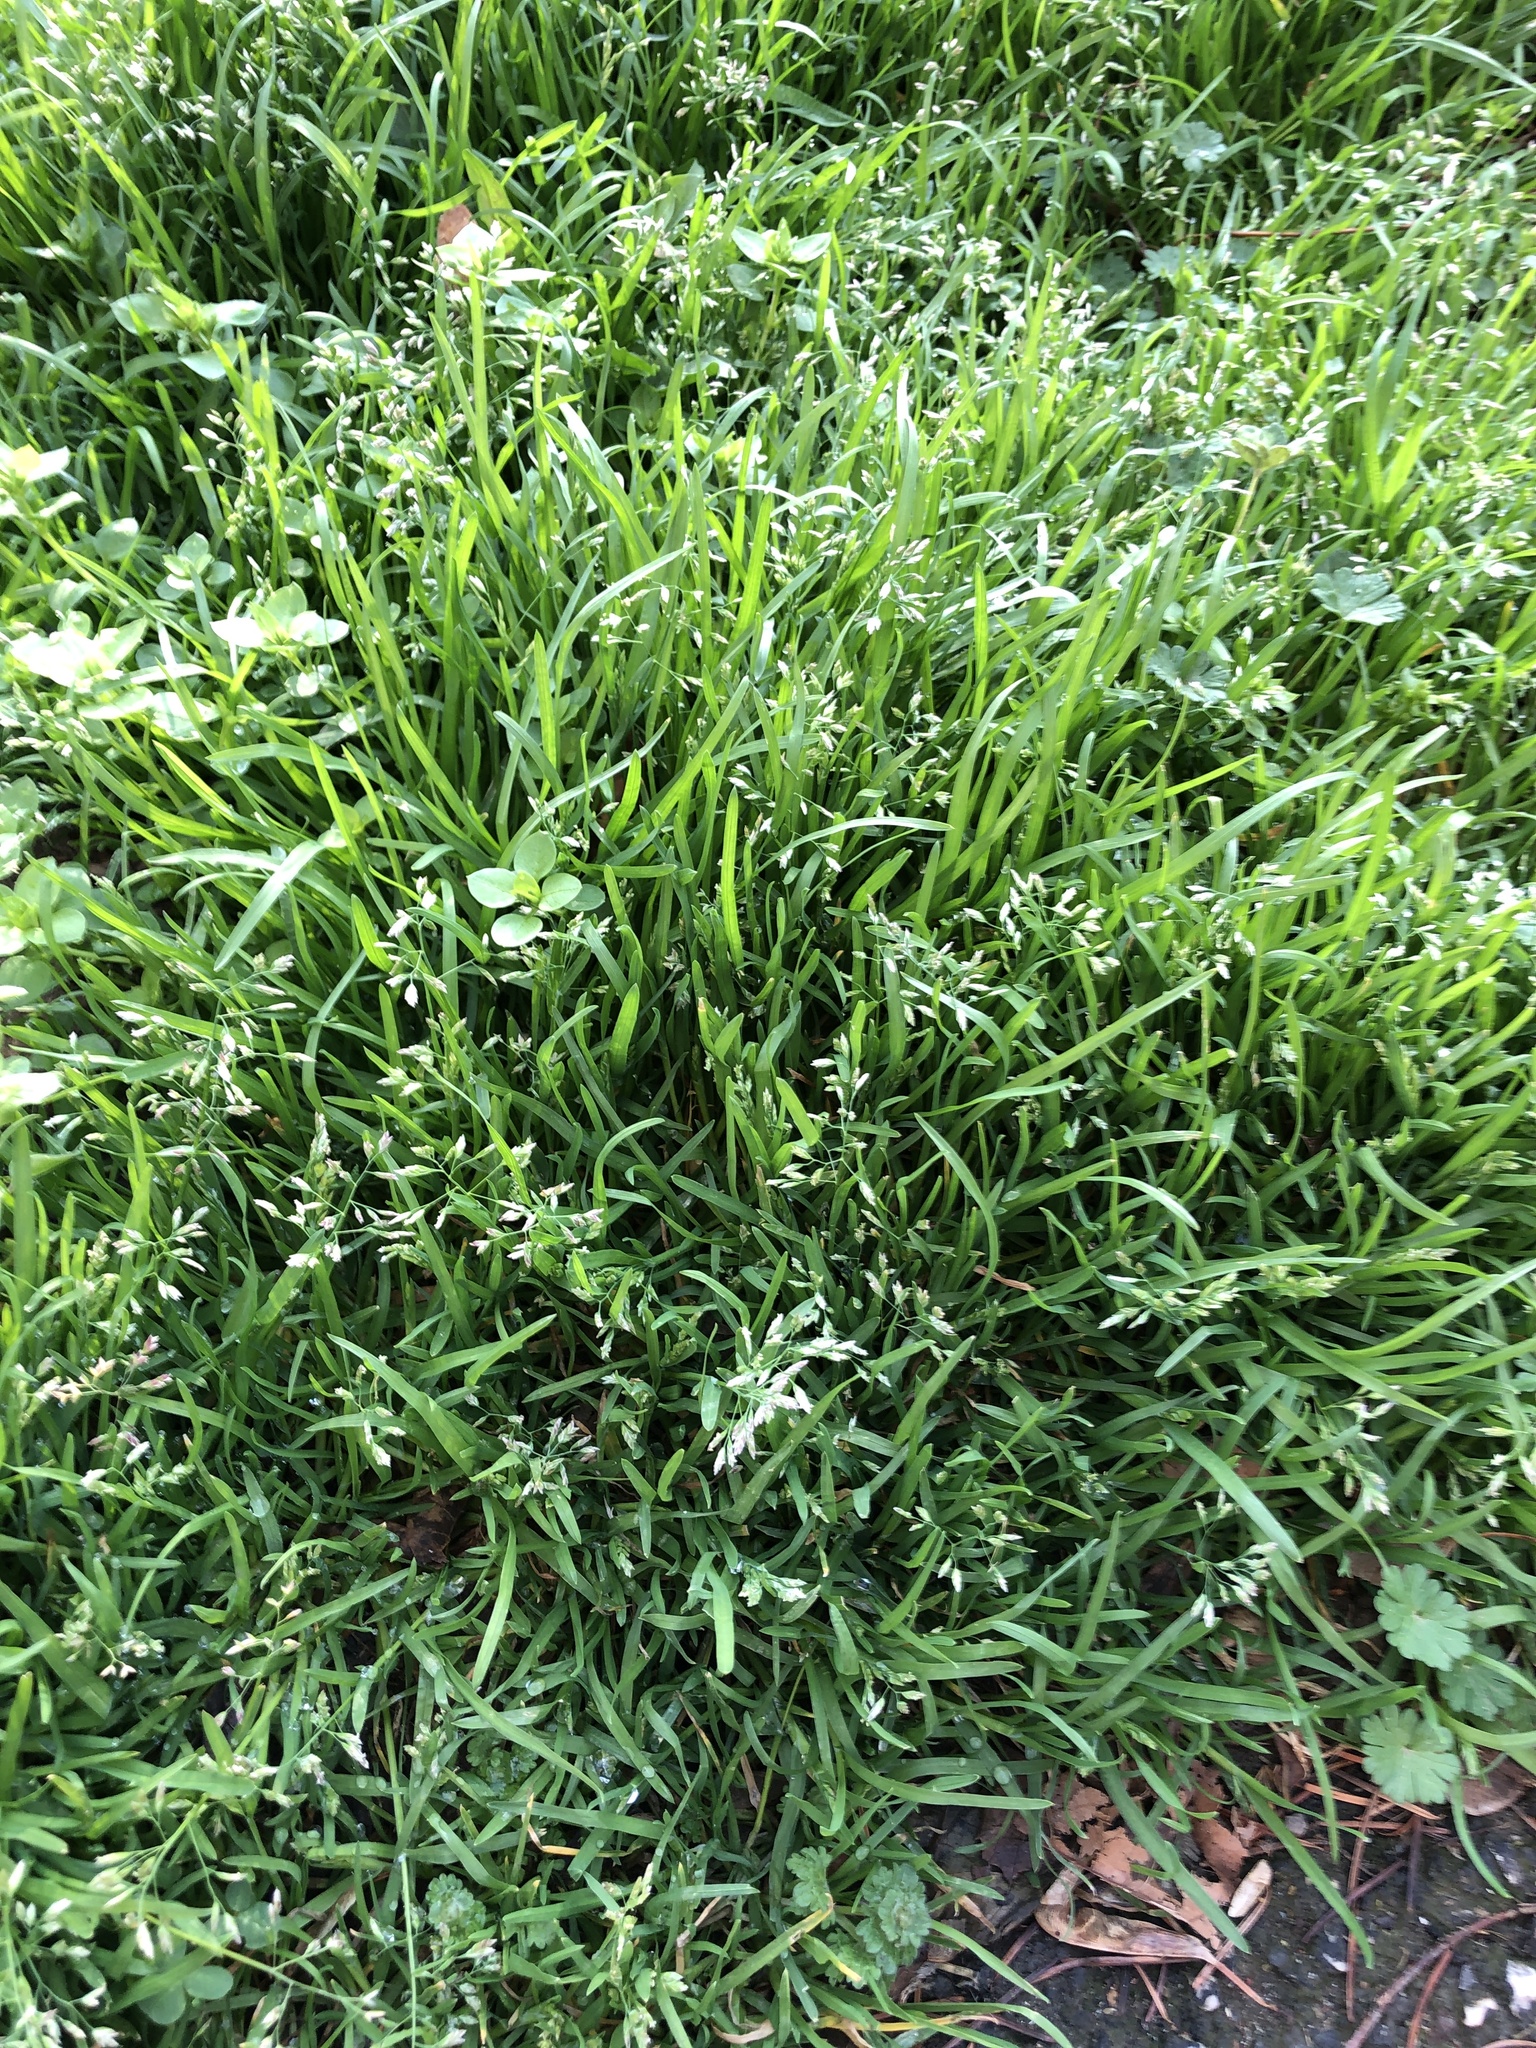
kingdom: Plantae
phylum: Tracheophyta
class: Liliopsida
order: Poales
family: Poaceae
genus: Poa
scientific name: Poa annua
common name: Annual bluegrass
